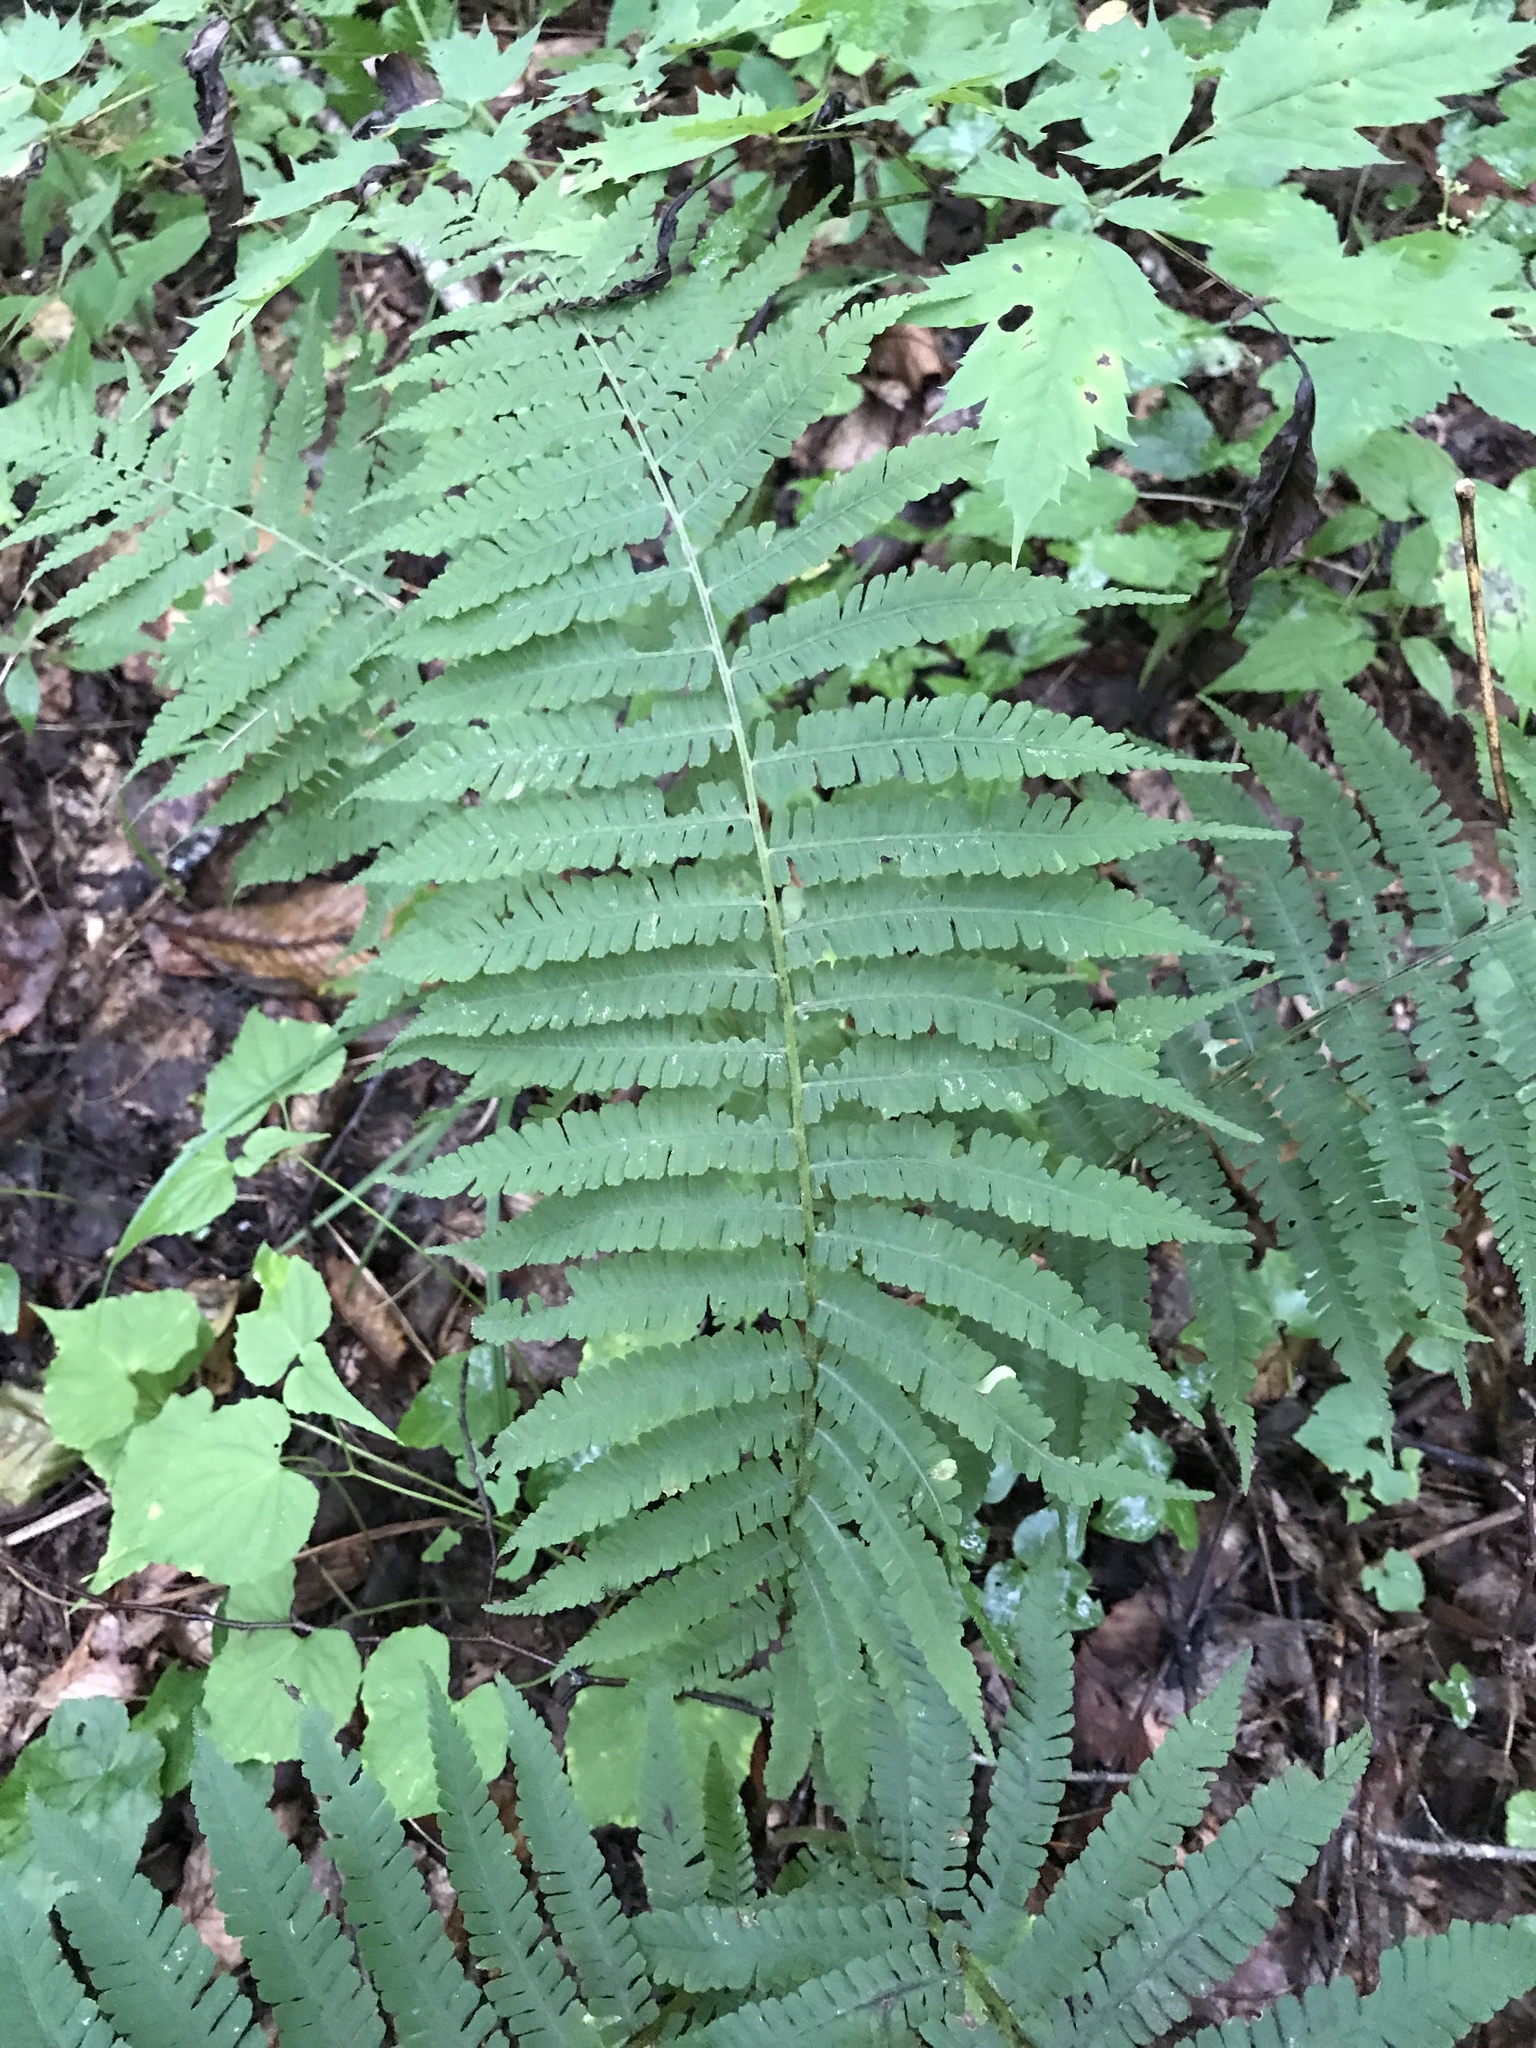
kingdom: Plantae
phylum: Tracheophyta
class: Polypodiopsida
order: Polypodiales
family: Athyriaceae
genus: Deparia
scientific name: Deparia acrostichoides
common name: Silver false spleenwort
